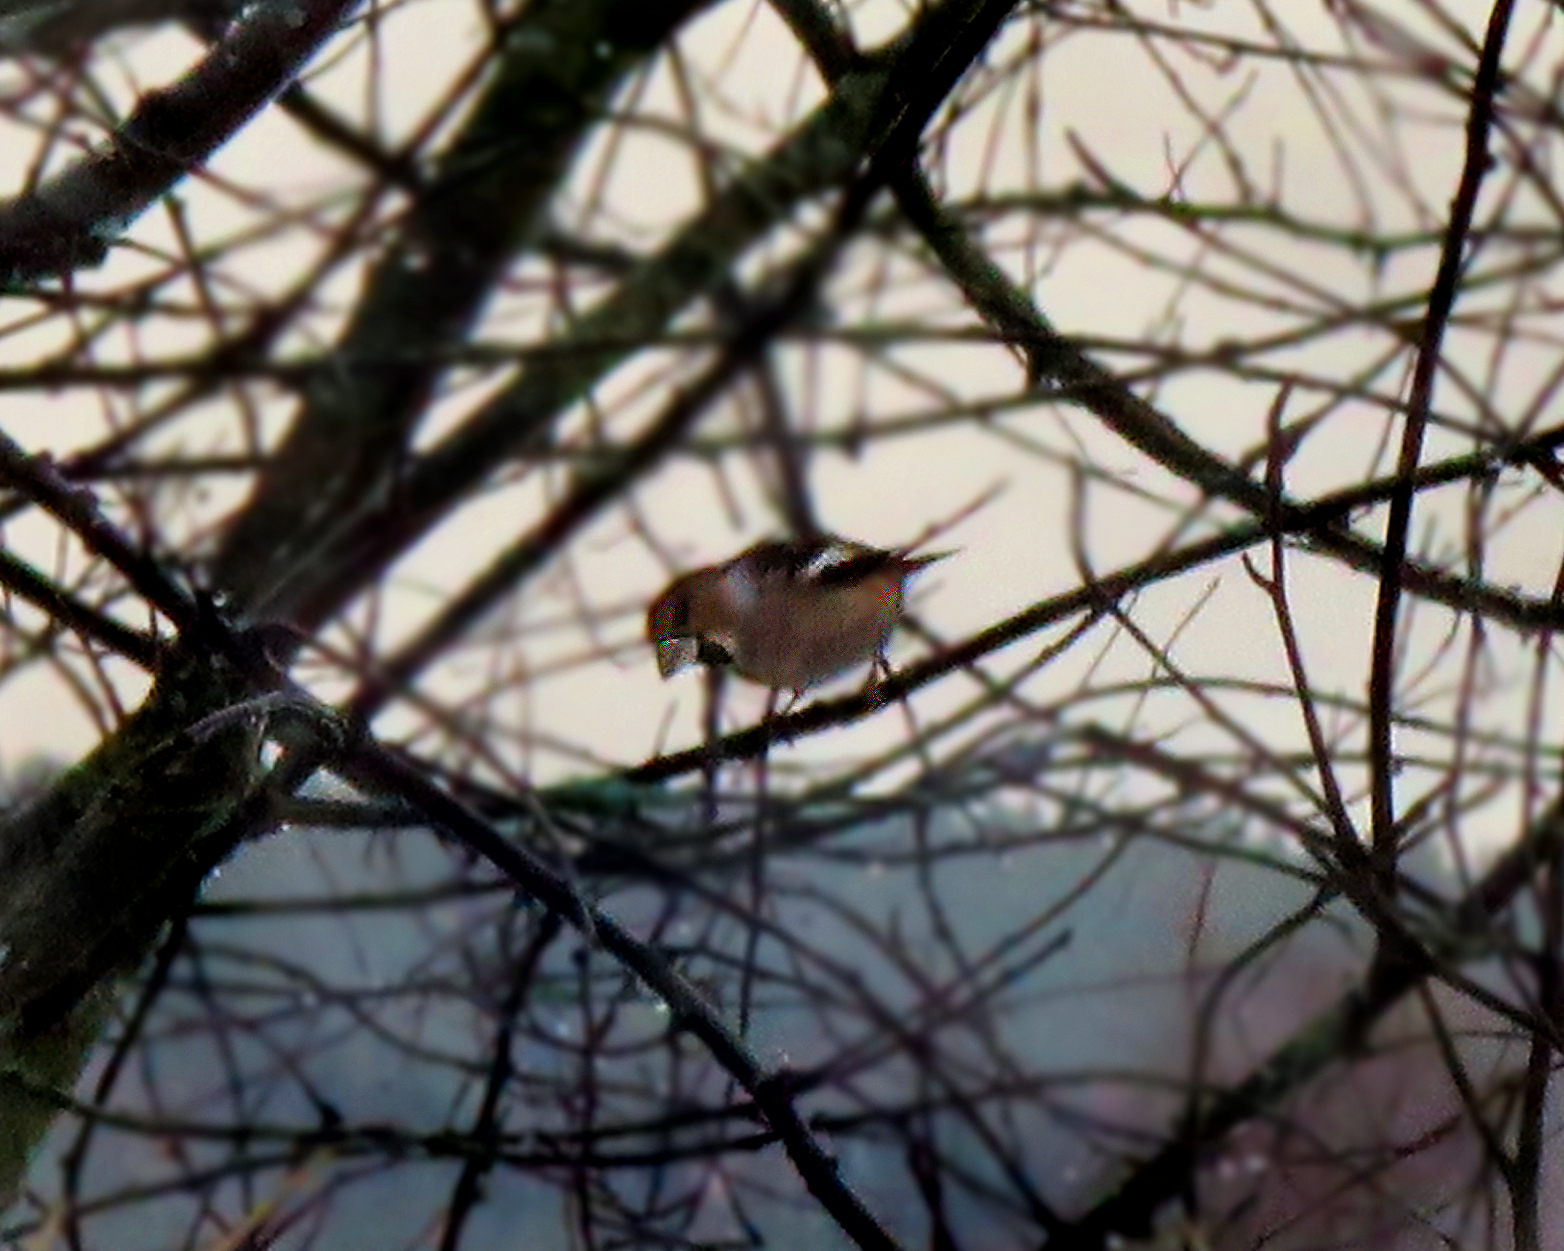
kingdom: Animalia
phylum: Chordata
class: Aves
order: Passeriformes
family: Fringillidae
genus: Coccothraustes
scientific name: Coccothraustes coccothraustes
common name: Hawfinch
